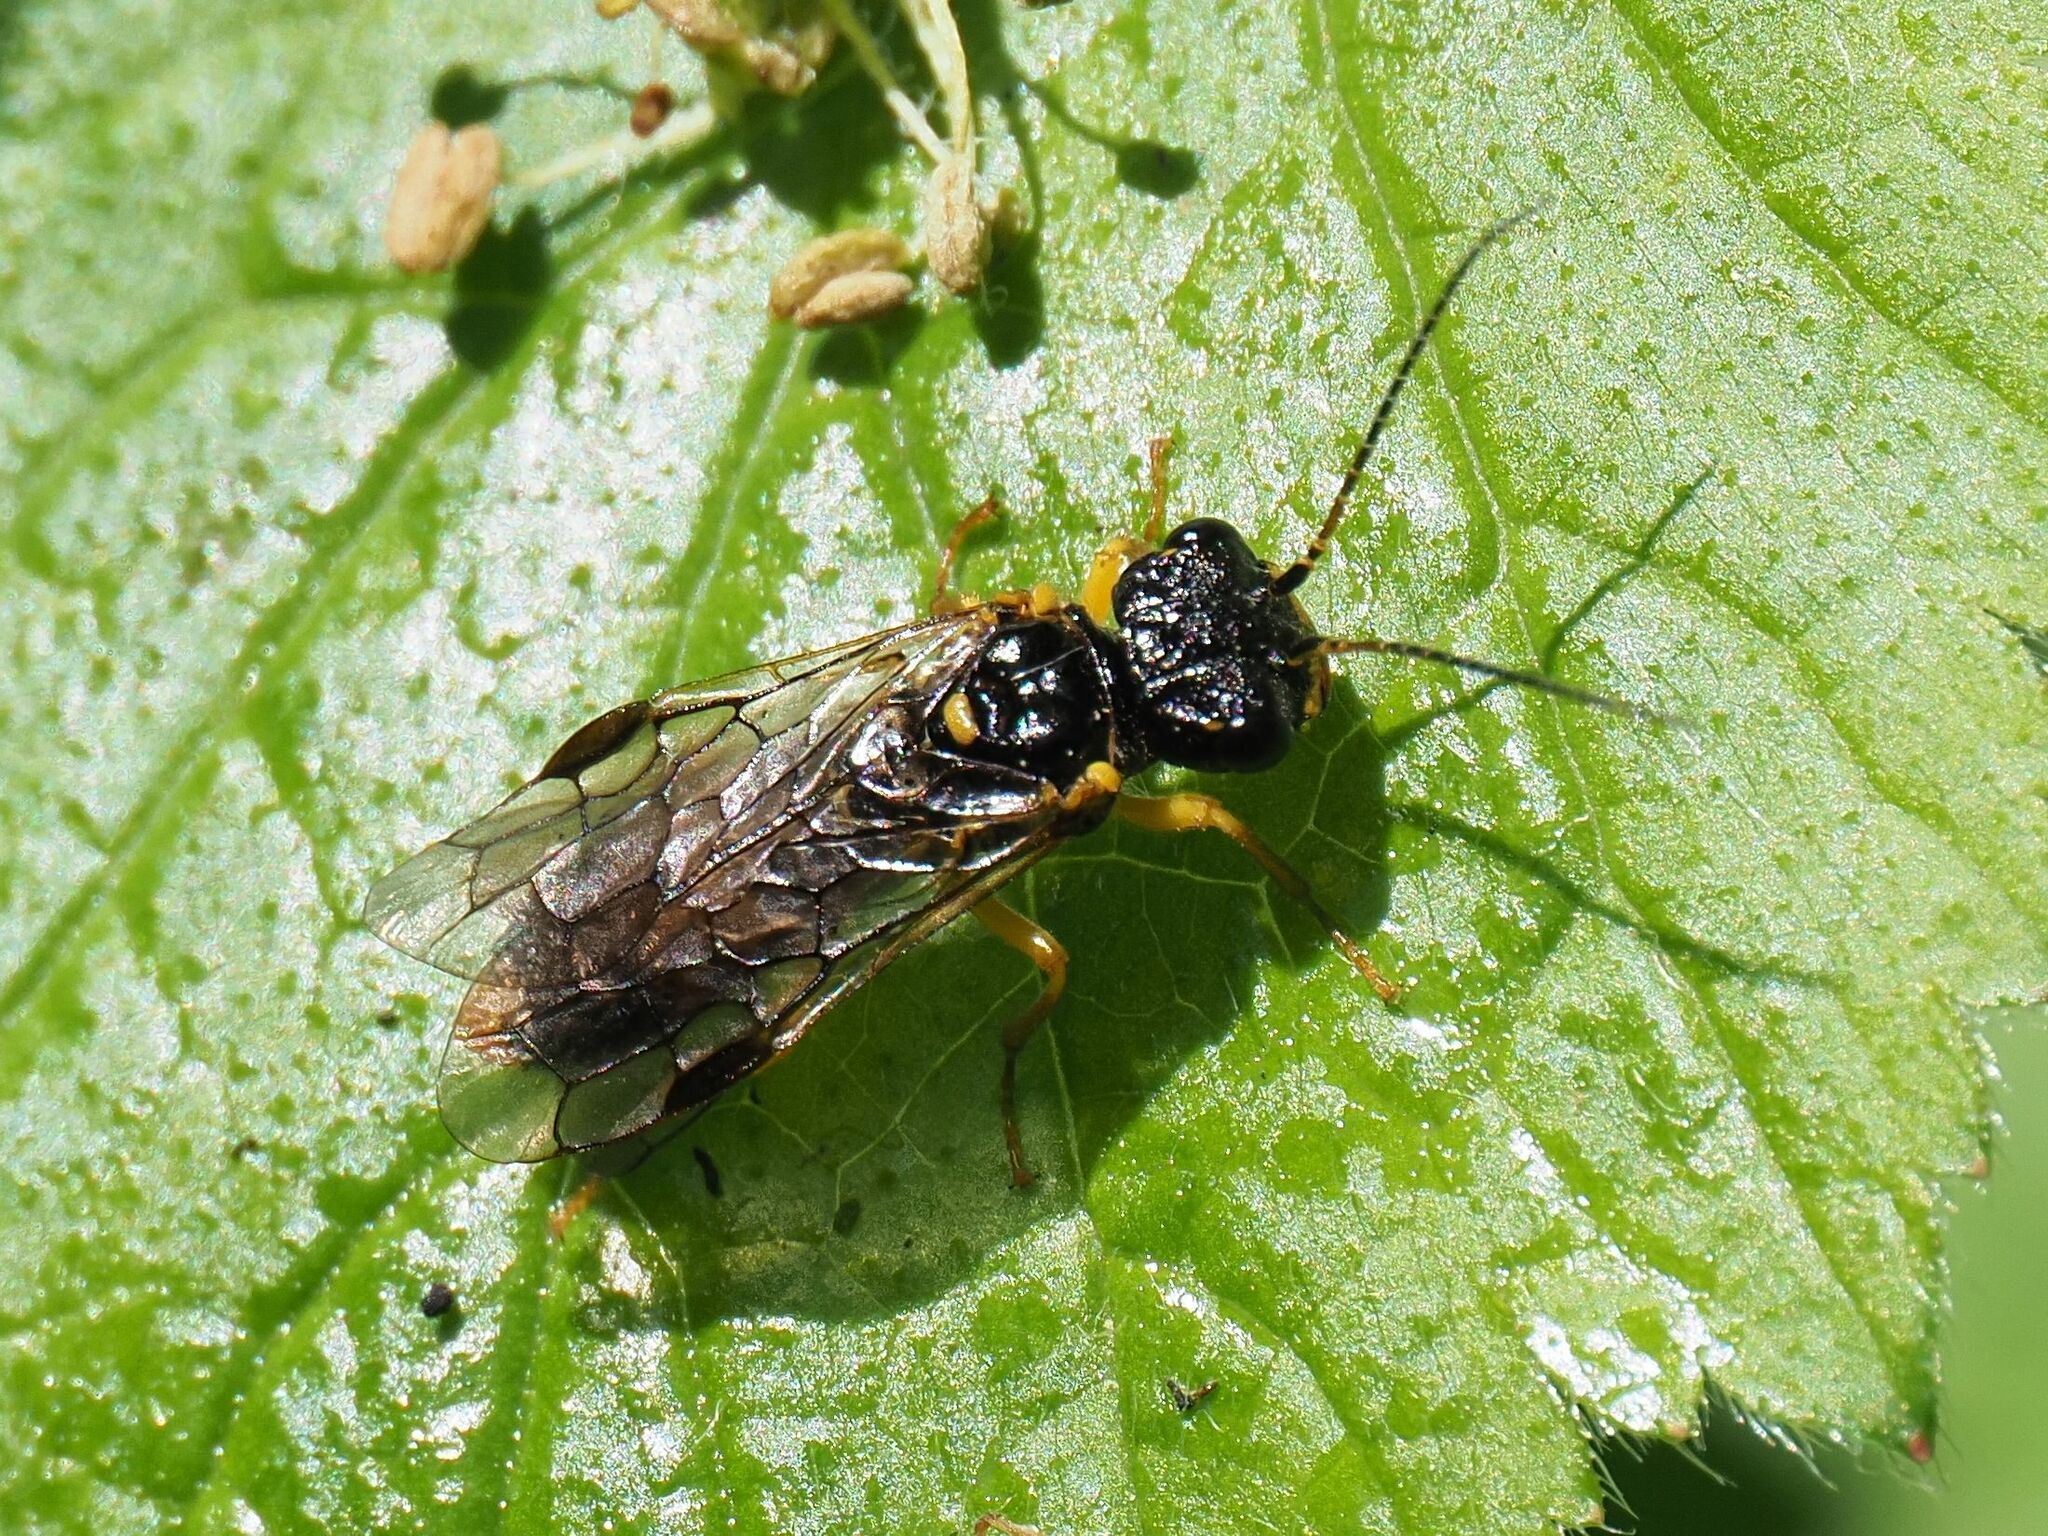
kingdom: Animalia
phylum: Arthropoda
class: Insecta
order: Hymenoptera
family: Pamphiliidae
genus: Pamphilius
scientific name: Pamphilius hortorum
